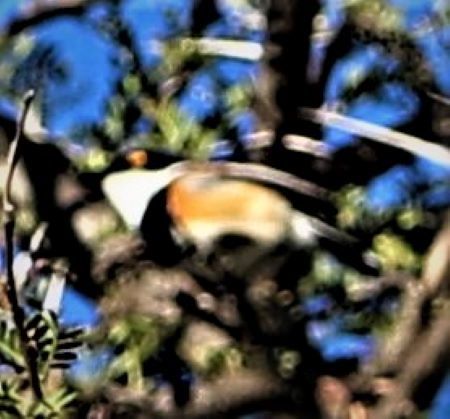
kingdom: Animalia
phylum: Chordata
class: Aves
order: Passeriformes
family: Platysteiridae
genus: Batis
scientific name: Batis capensis
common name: Cape batis
